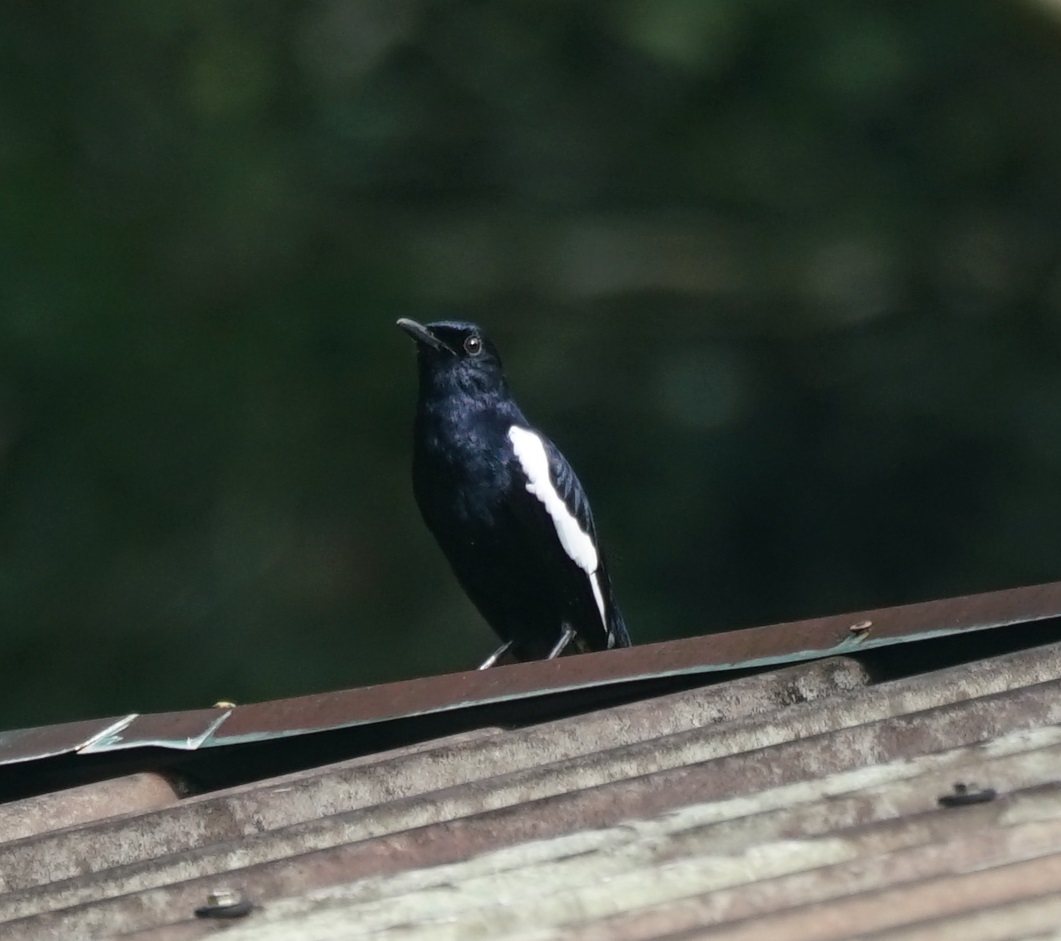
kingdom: Animalia
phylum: Chordata
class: Aves
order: Passeriformes
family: Muscicapidae
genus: Copsychus
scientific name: Copsychus saularis
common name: Oriental magpie-robin
